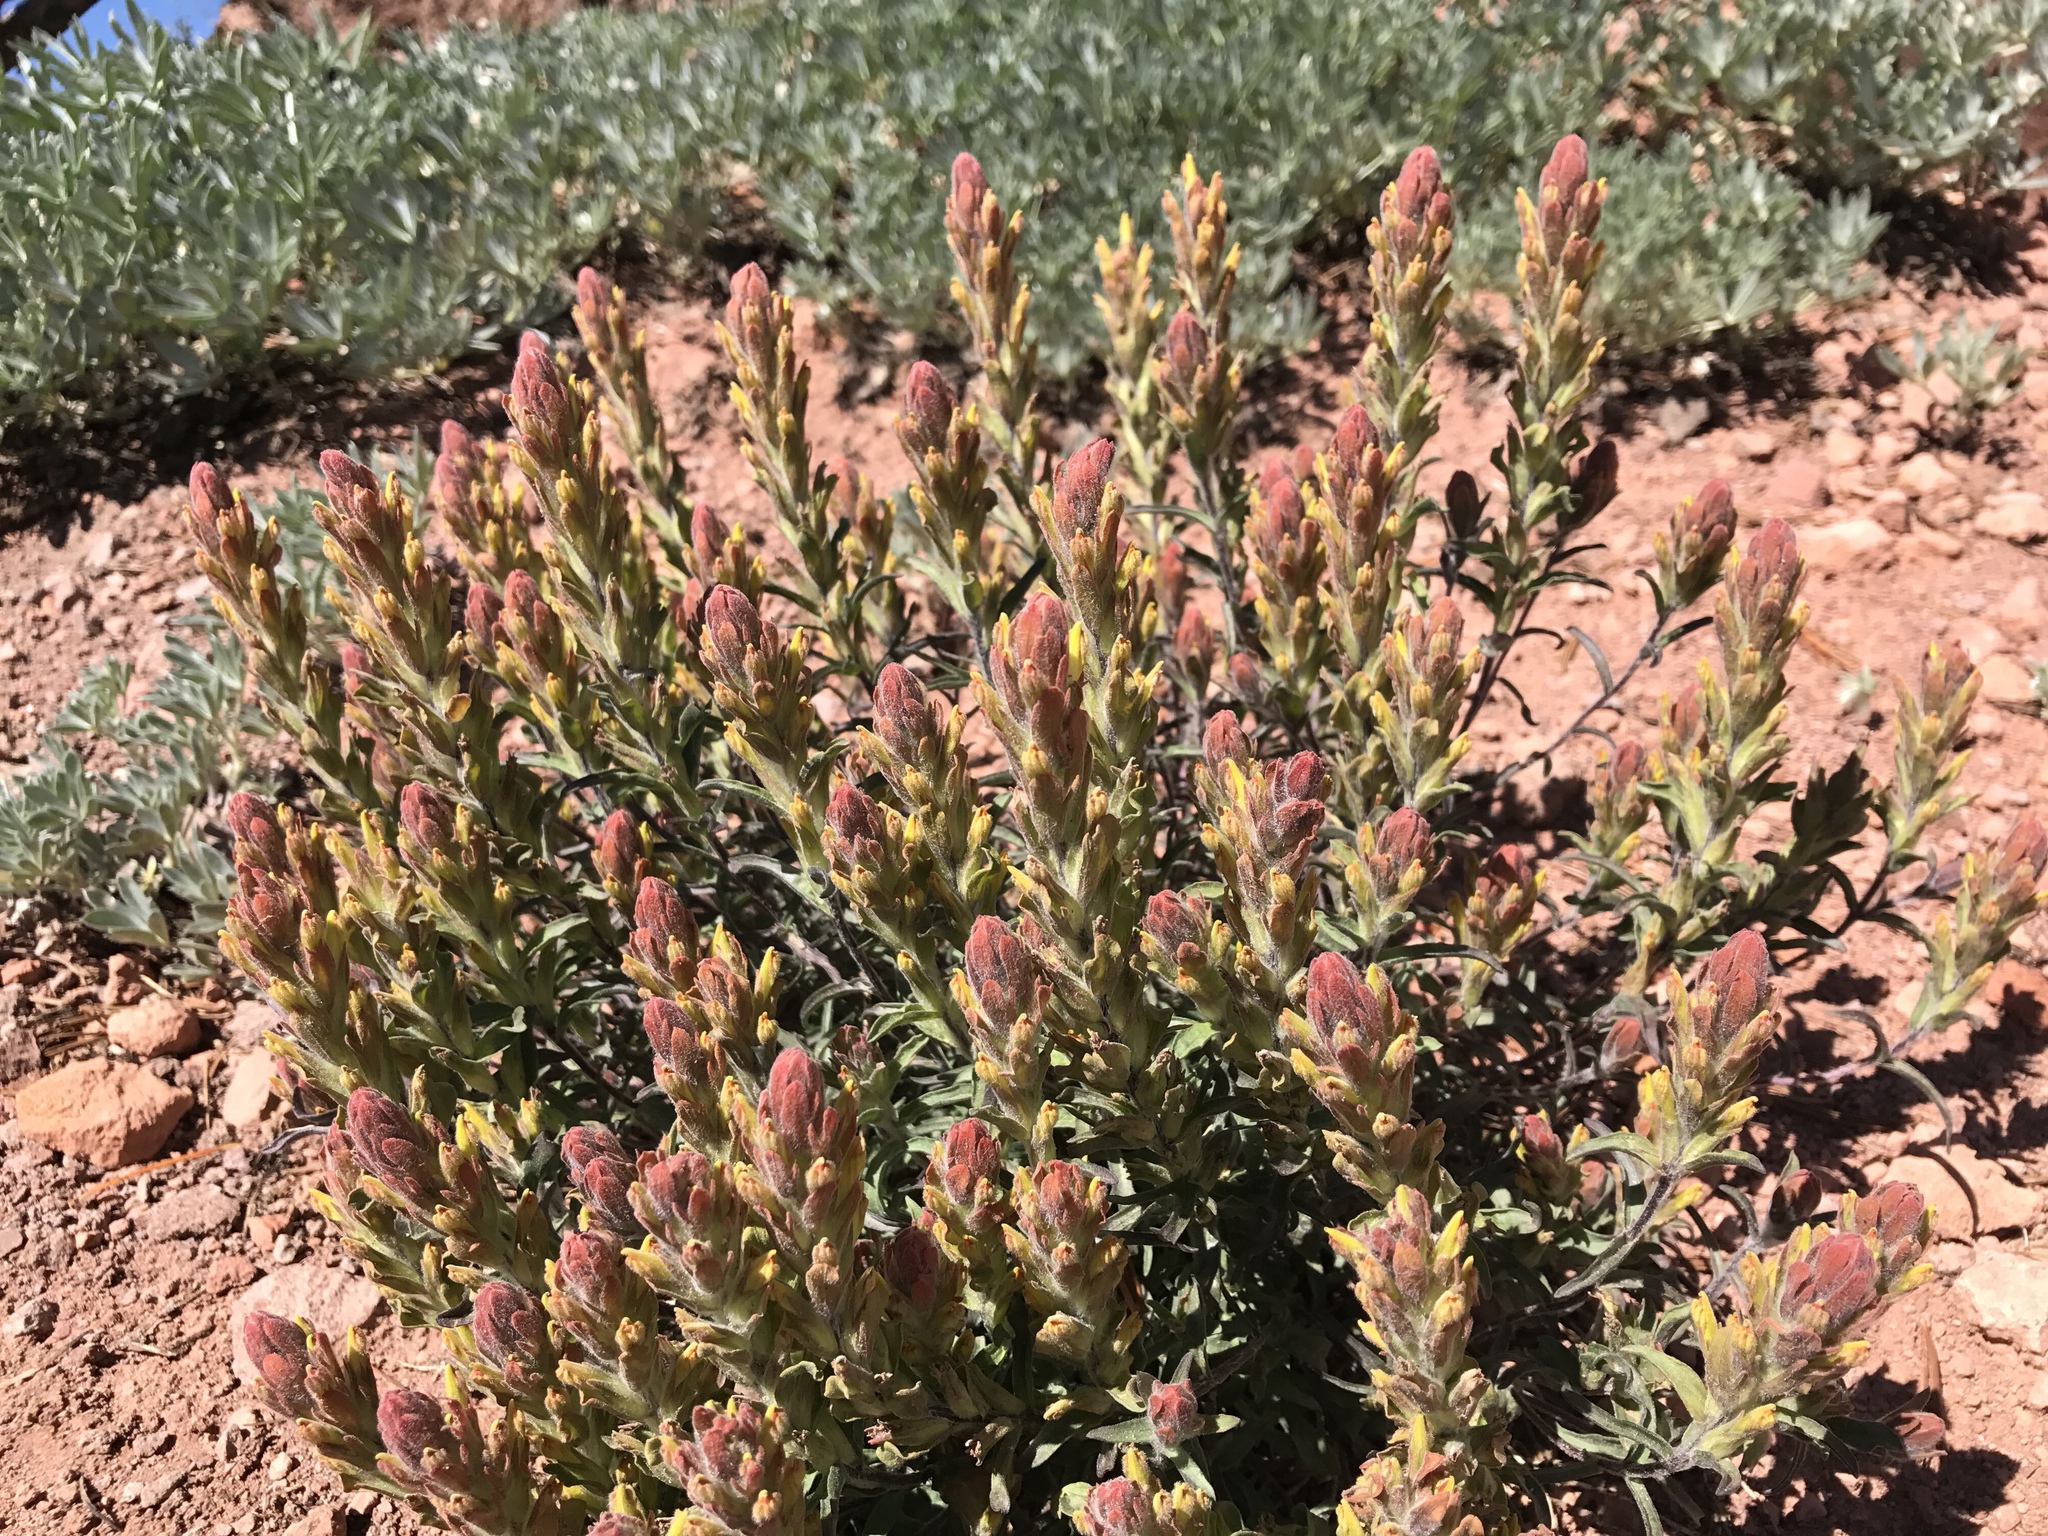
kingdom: Plantae
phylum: Tracheophyta
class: Magnoliopsida
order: Lamiales
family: Orobanchaceae
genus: Castilleja
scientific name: Castilleja arachnoidea
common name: Cobwebby indian paintbrush
